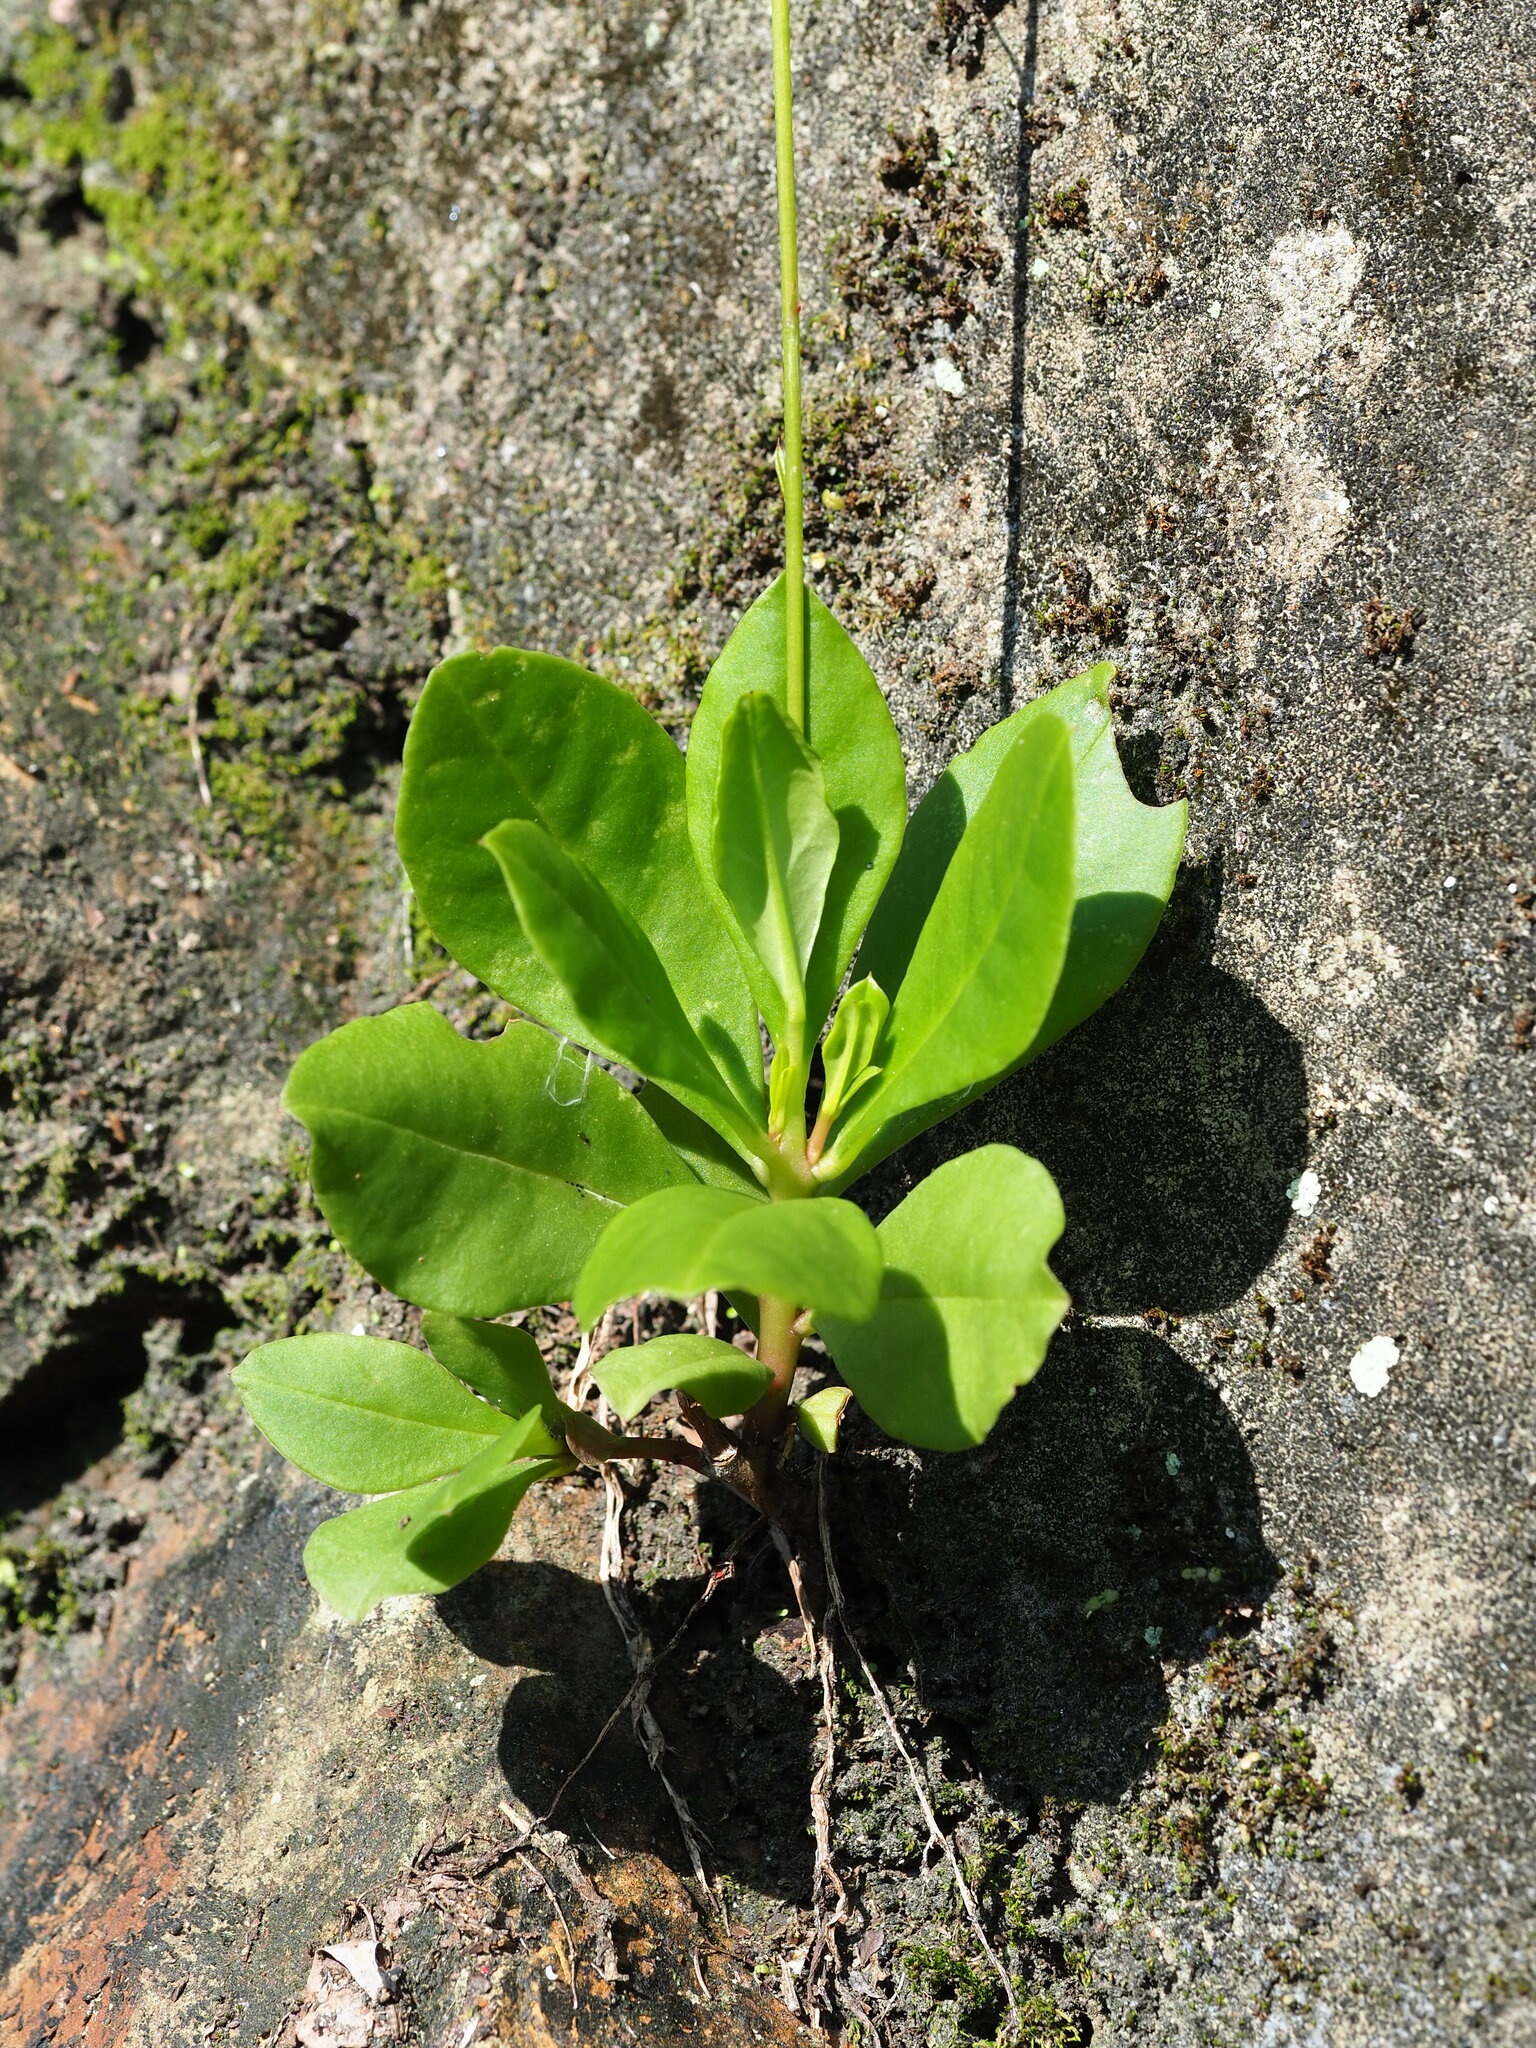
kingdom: Plantae
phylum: Tracheophyta
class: Magnoliopsida
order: Caryophyllales
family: Talinaceae
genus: Talinum
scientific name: Talinum paniculatum
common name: Jewels of opar
